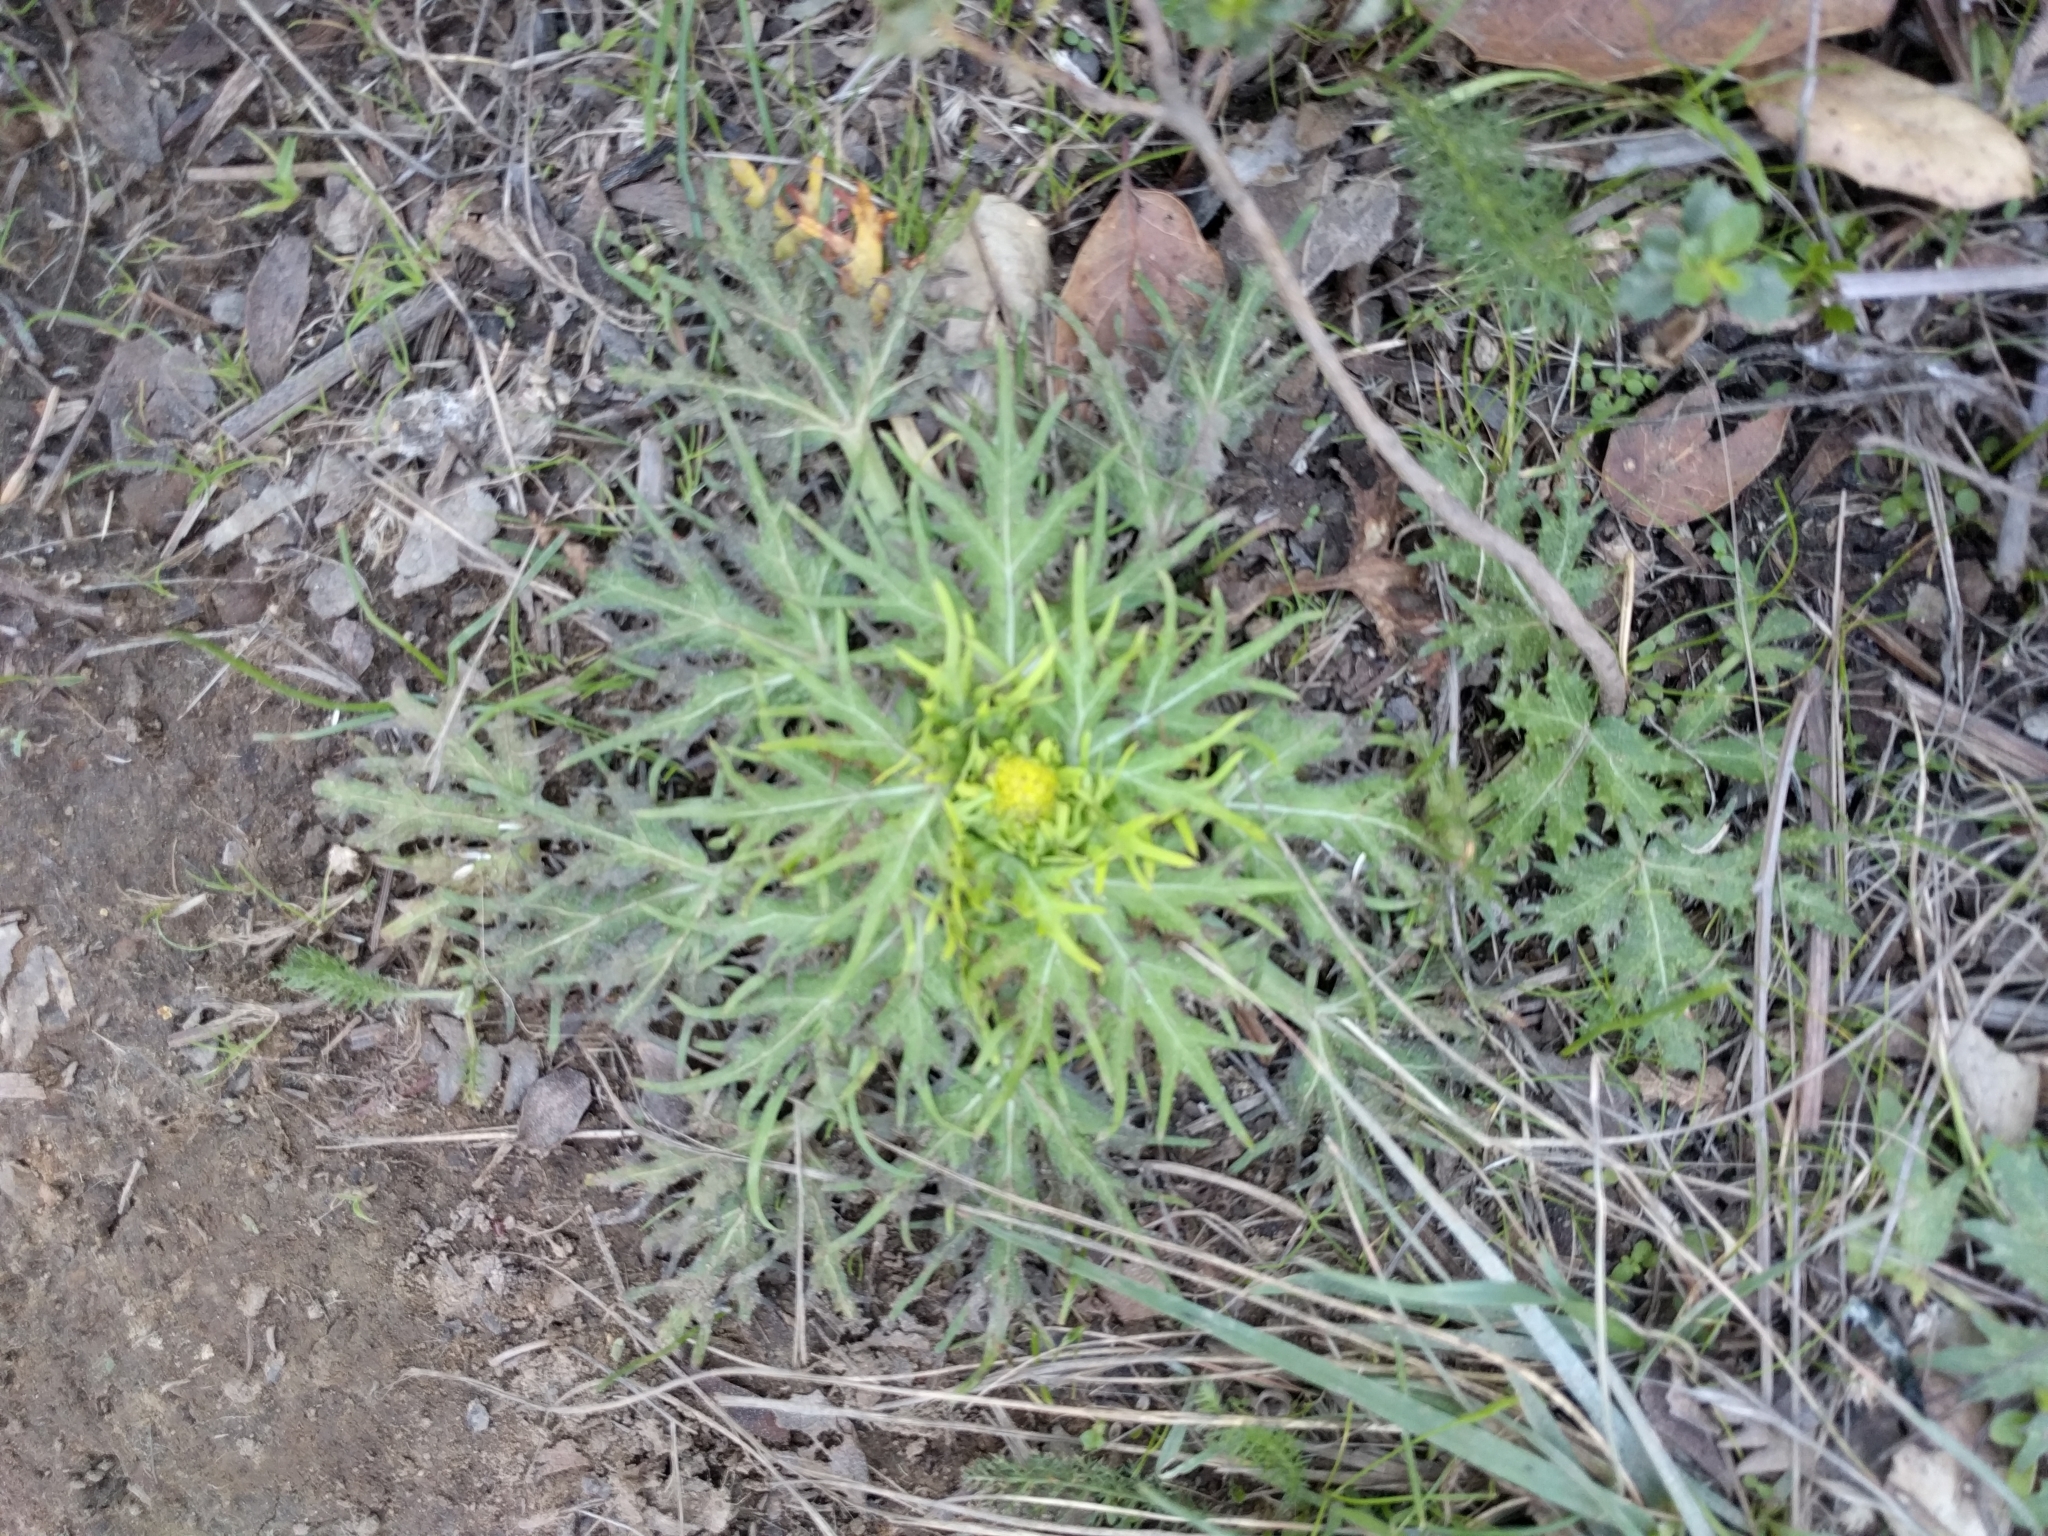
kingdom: Plantae
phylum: Tracheophyta
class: Magnoliopsida
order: Apiales
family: Apiaceae
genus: Sanicula
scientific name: Sanicula arctopoides
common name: Footsteps-of-spring
